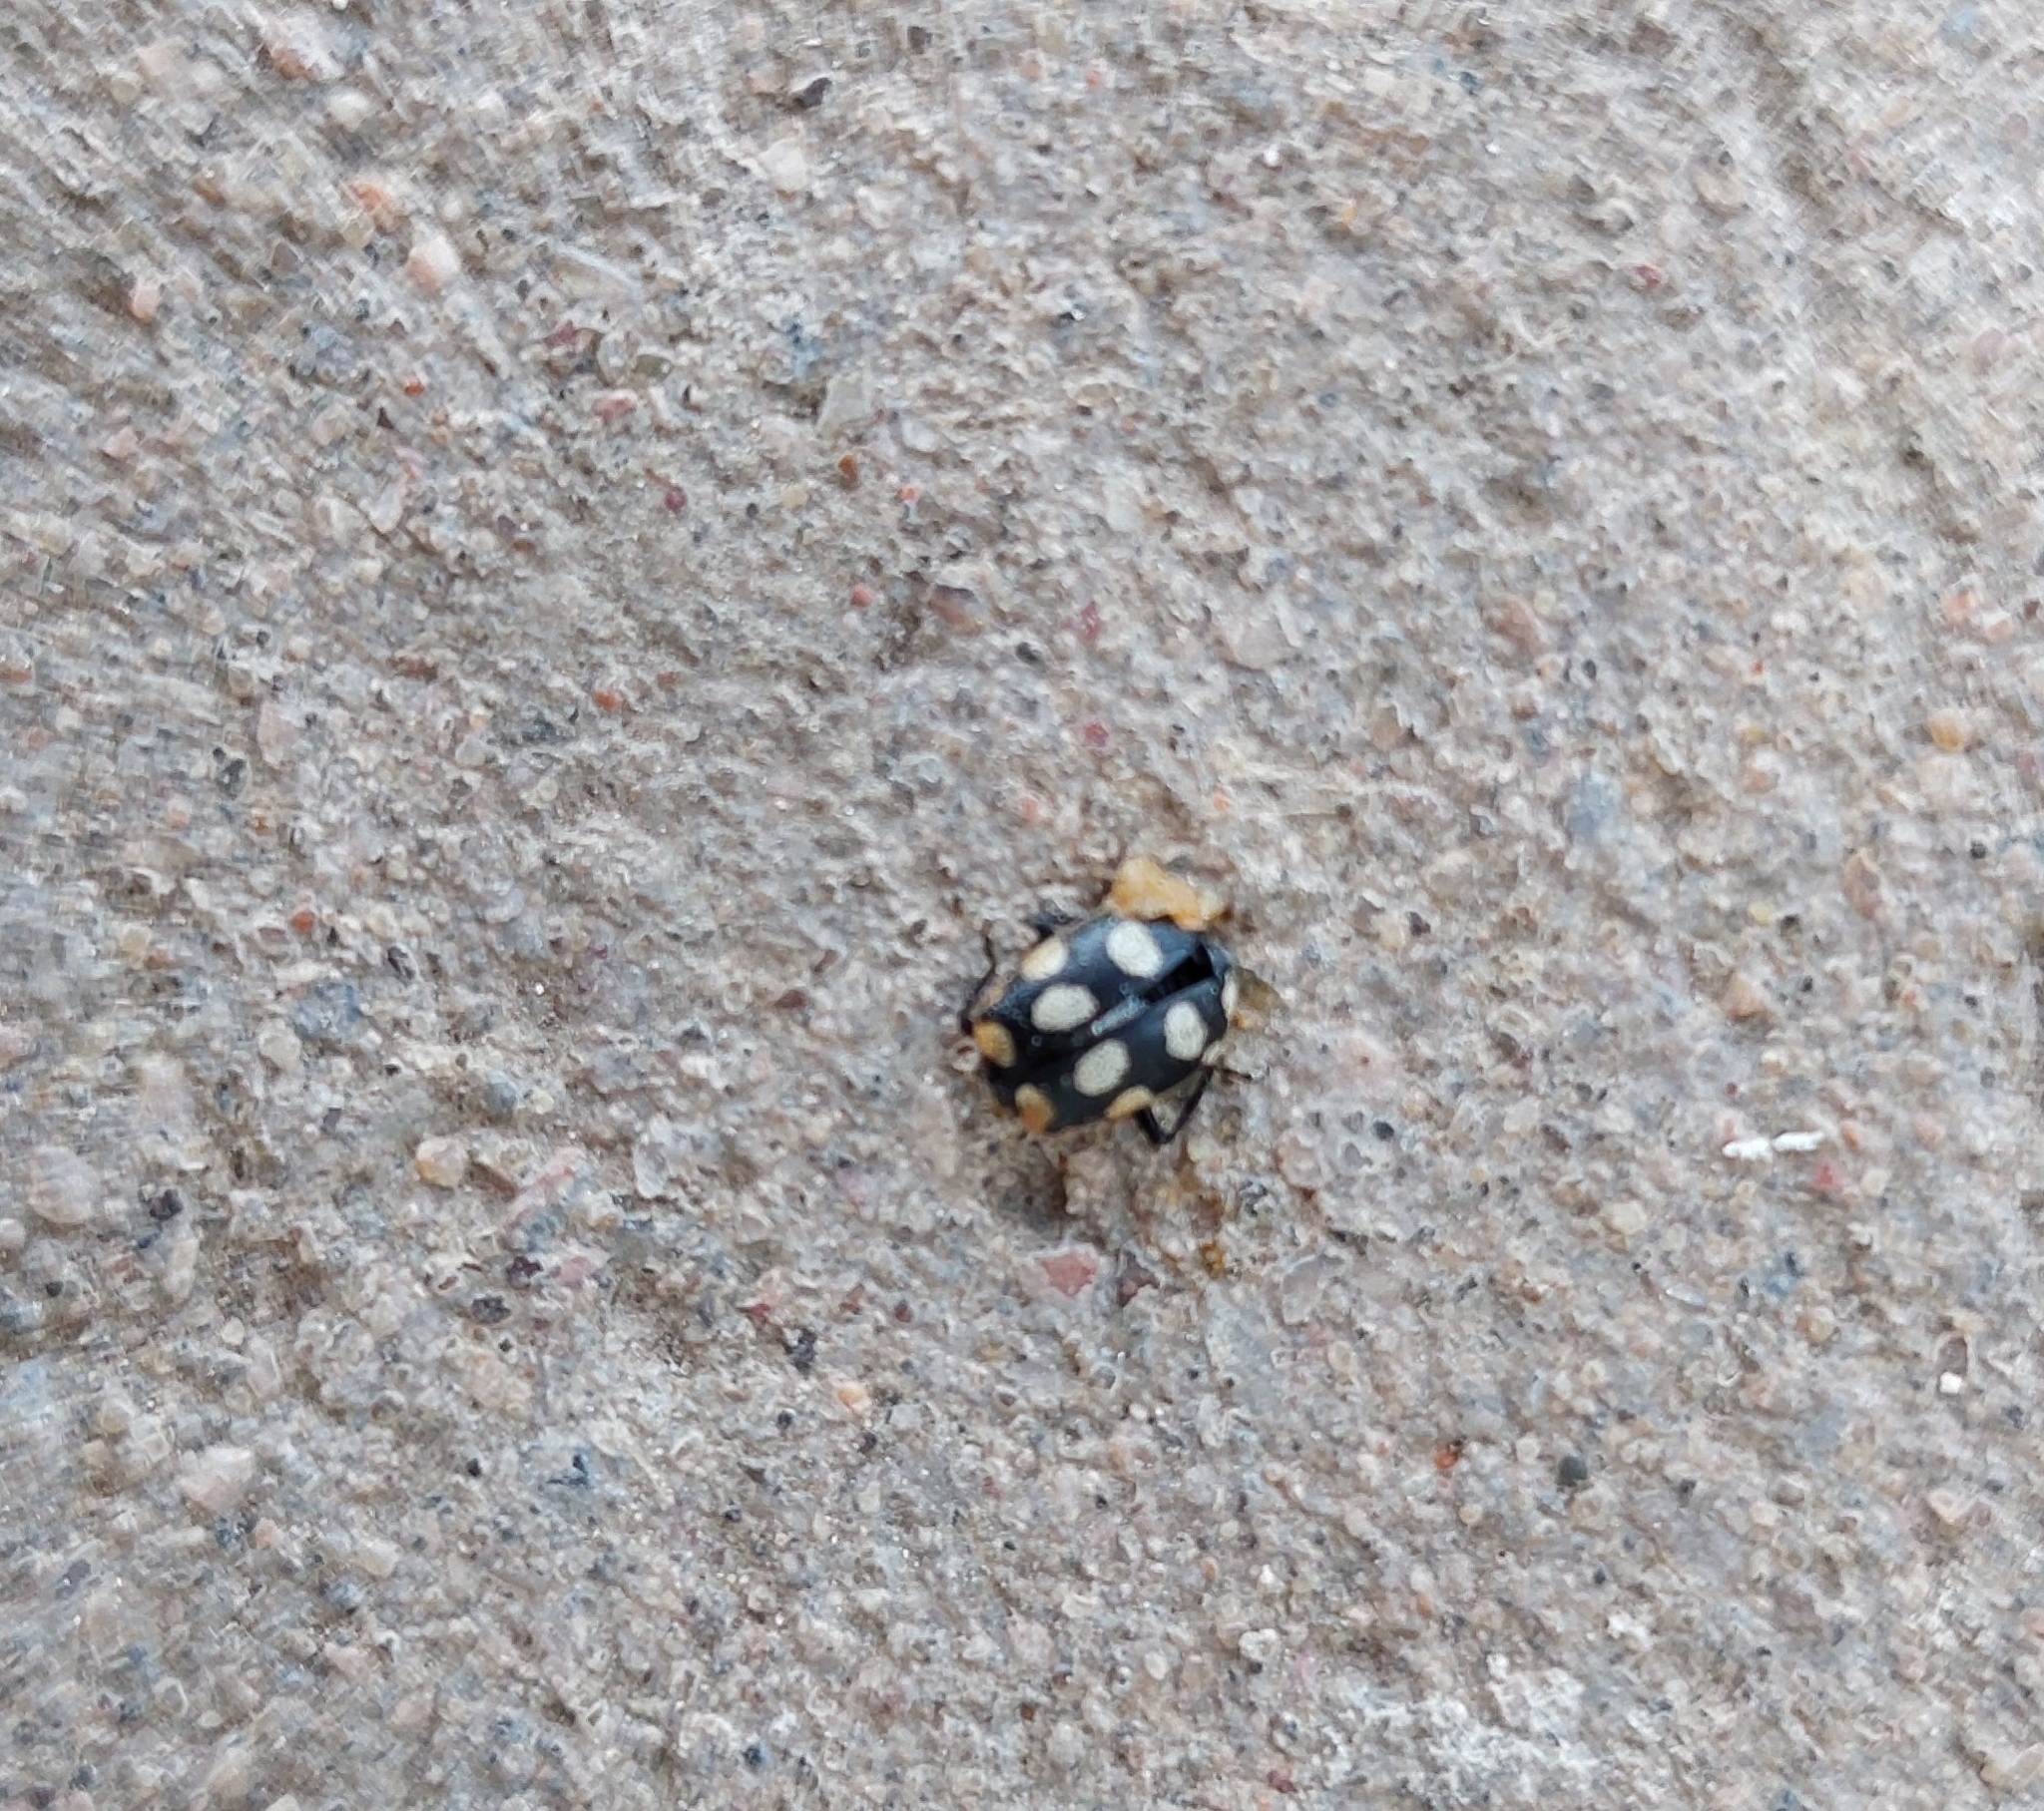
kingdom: Animalia
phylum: Arthropoda
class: Insecta
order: Coleoptera
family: Coccinellidae
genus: Eriopis
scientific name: Eriopis connexa
